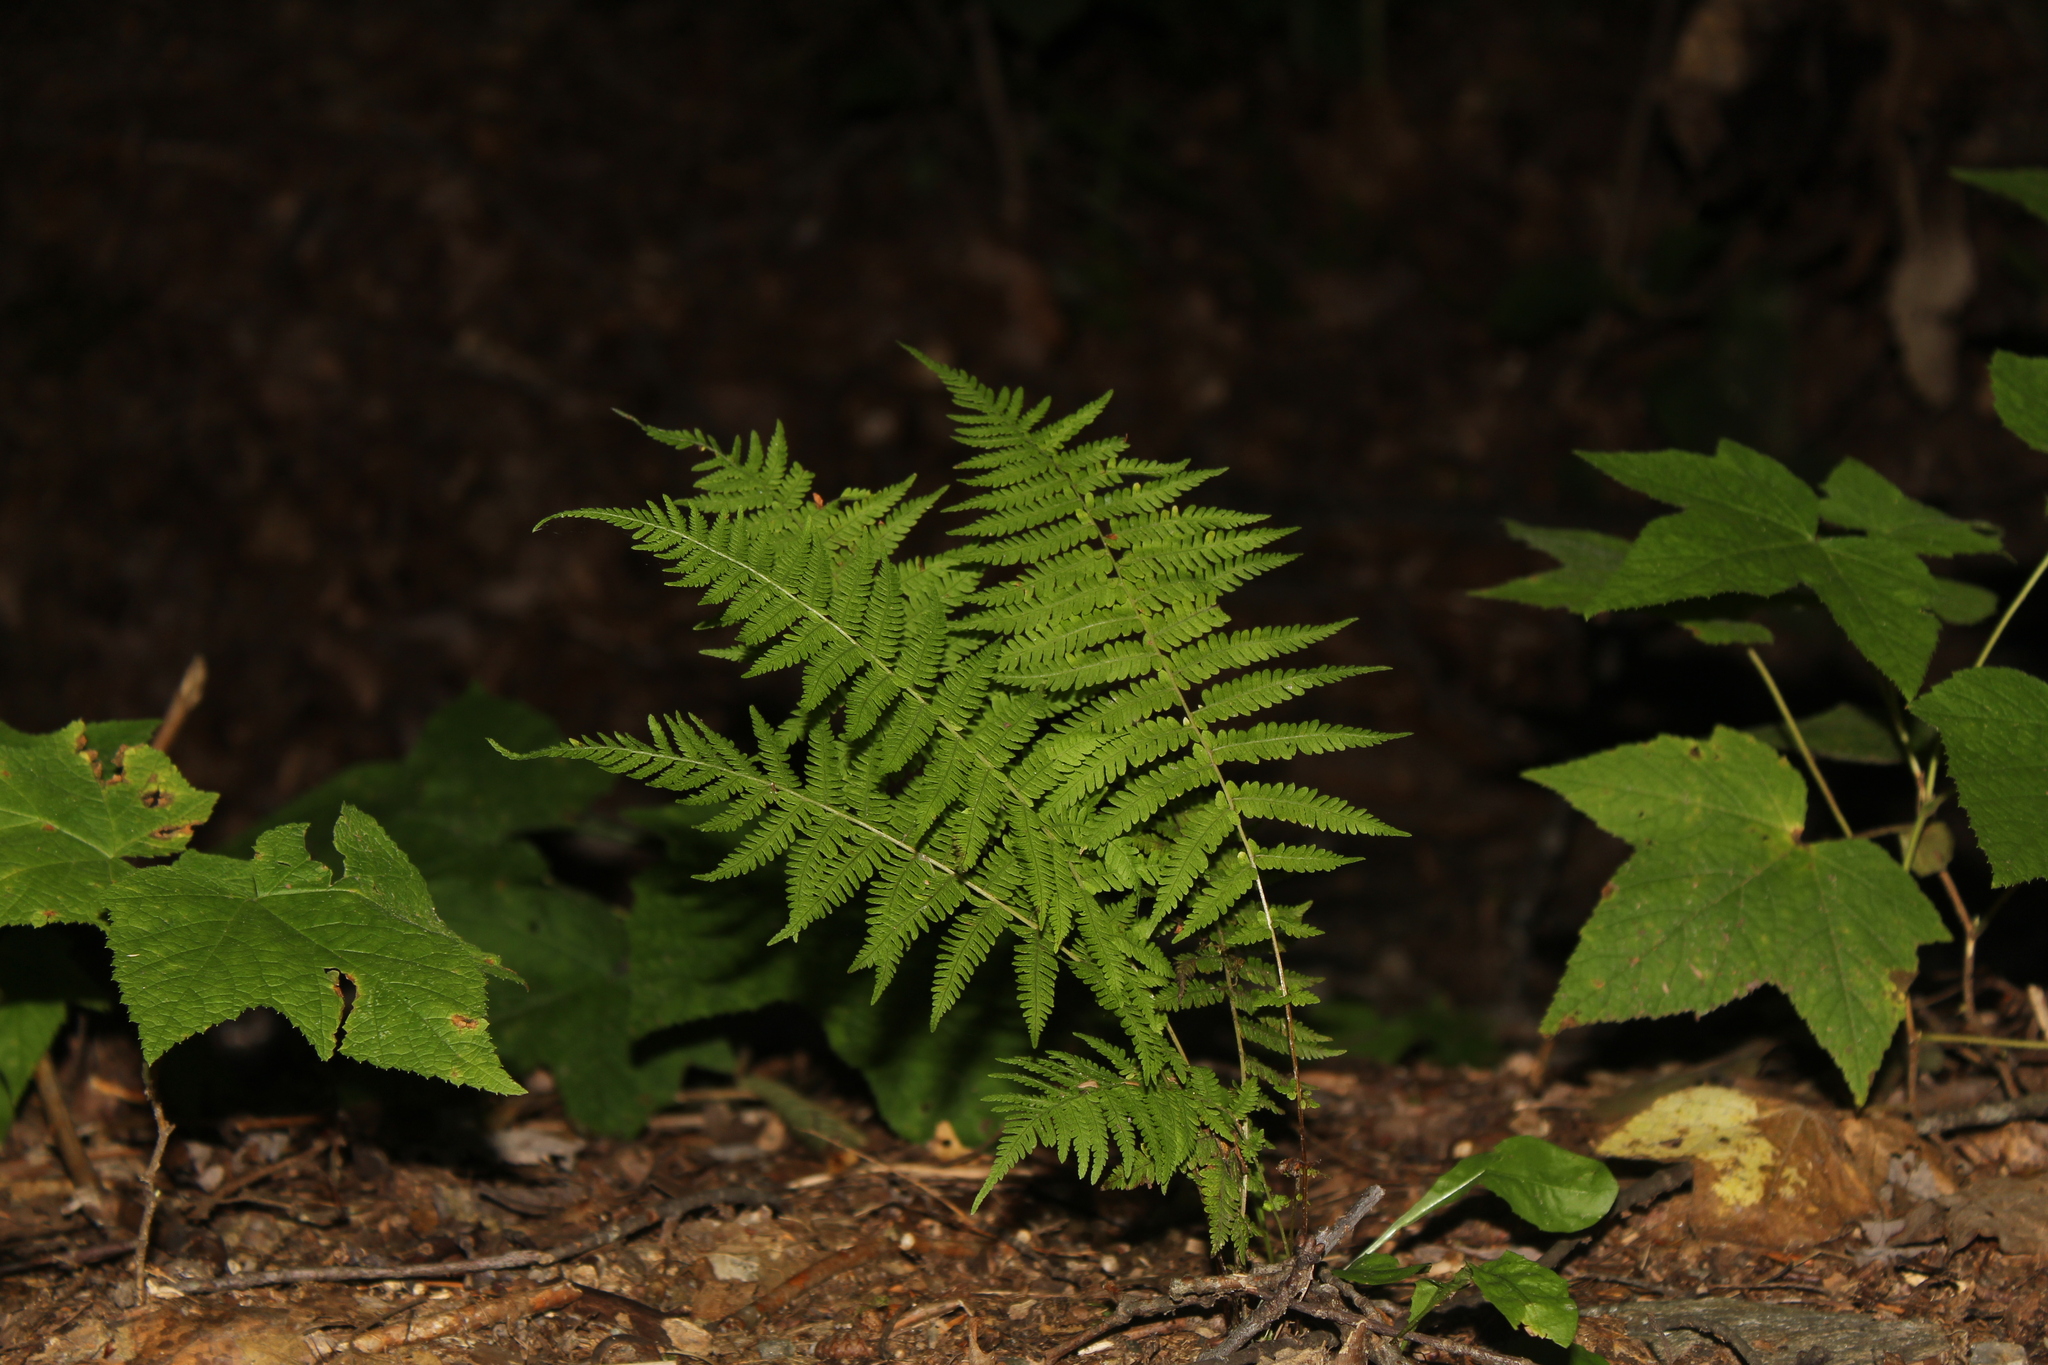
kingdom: Plantae
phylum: Tracheophyta
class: Polypodiopsida
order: Polypodiales
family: Thelypteridaceae
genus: Amauropelta
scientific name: Amauropelta noveboracensis
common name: New york fern
